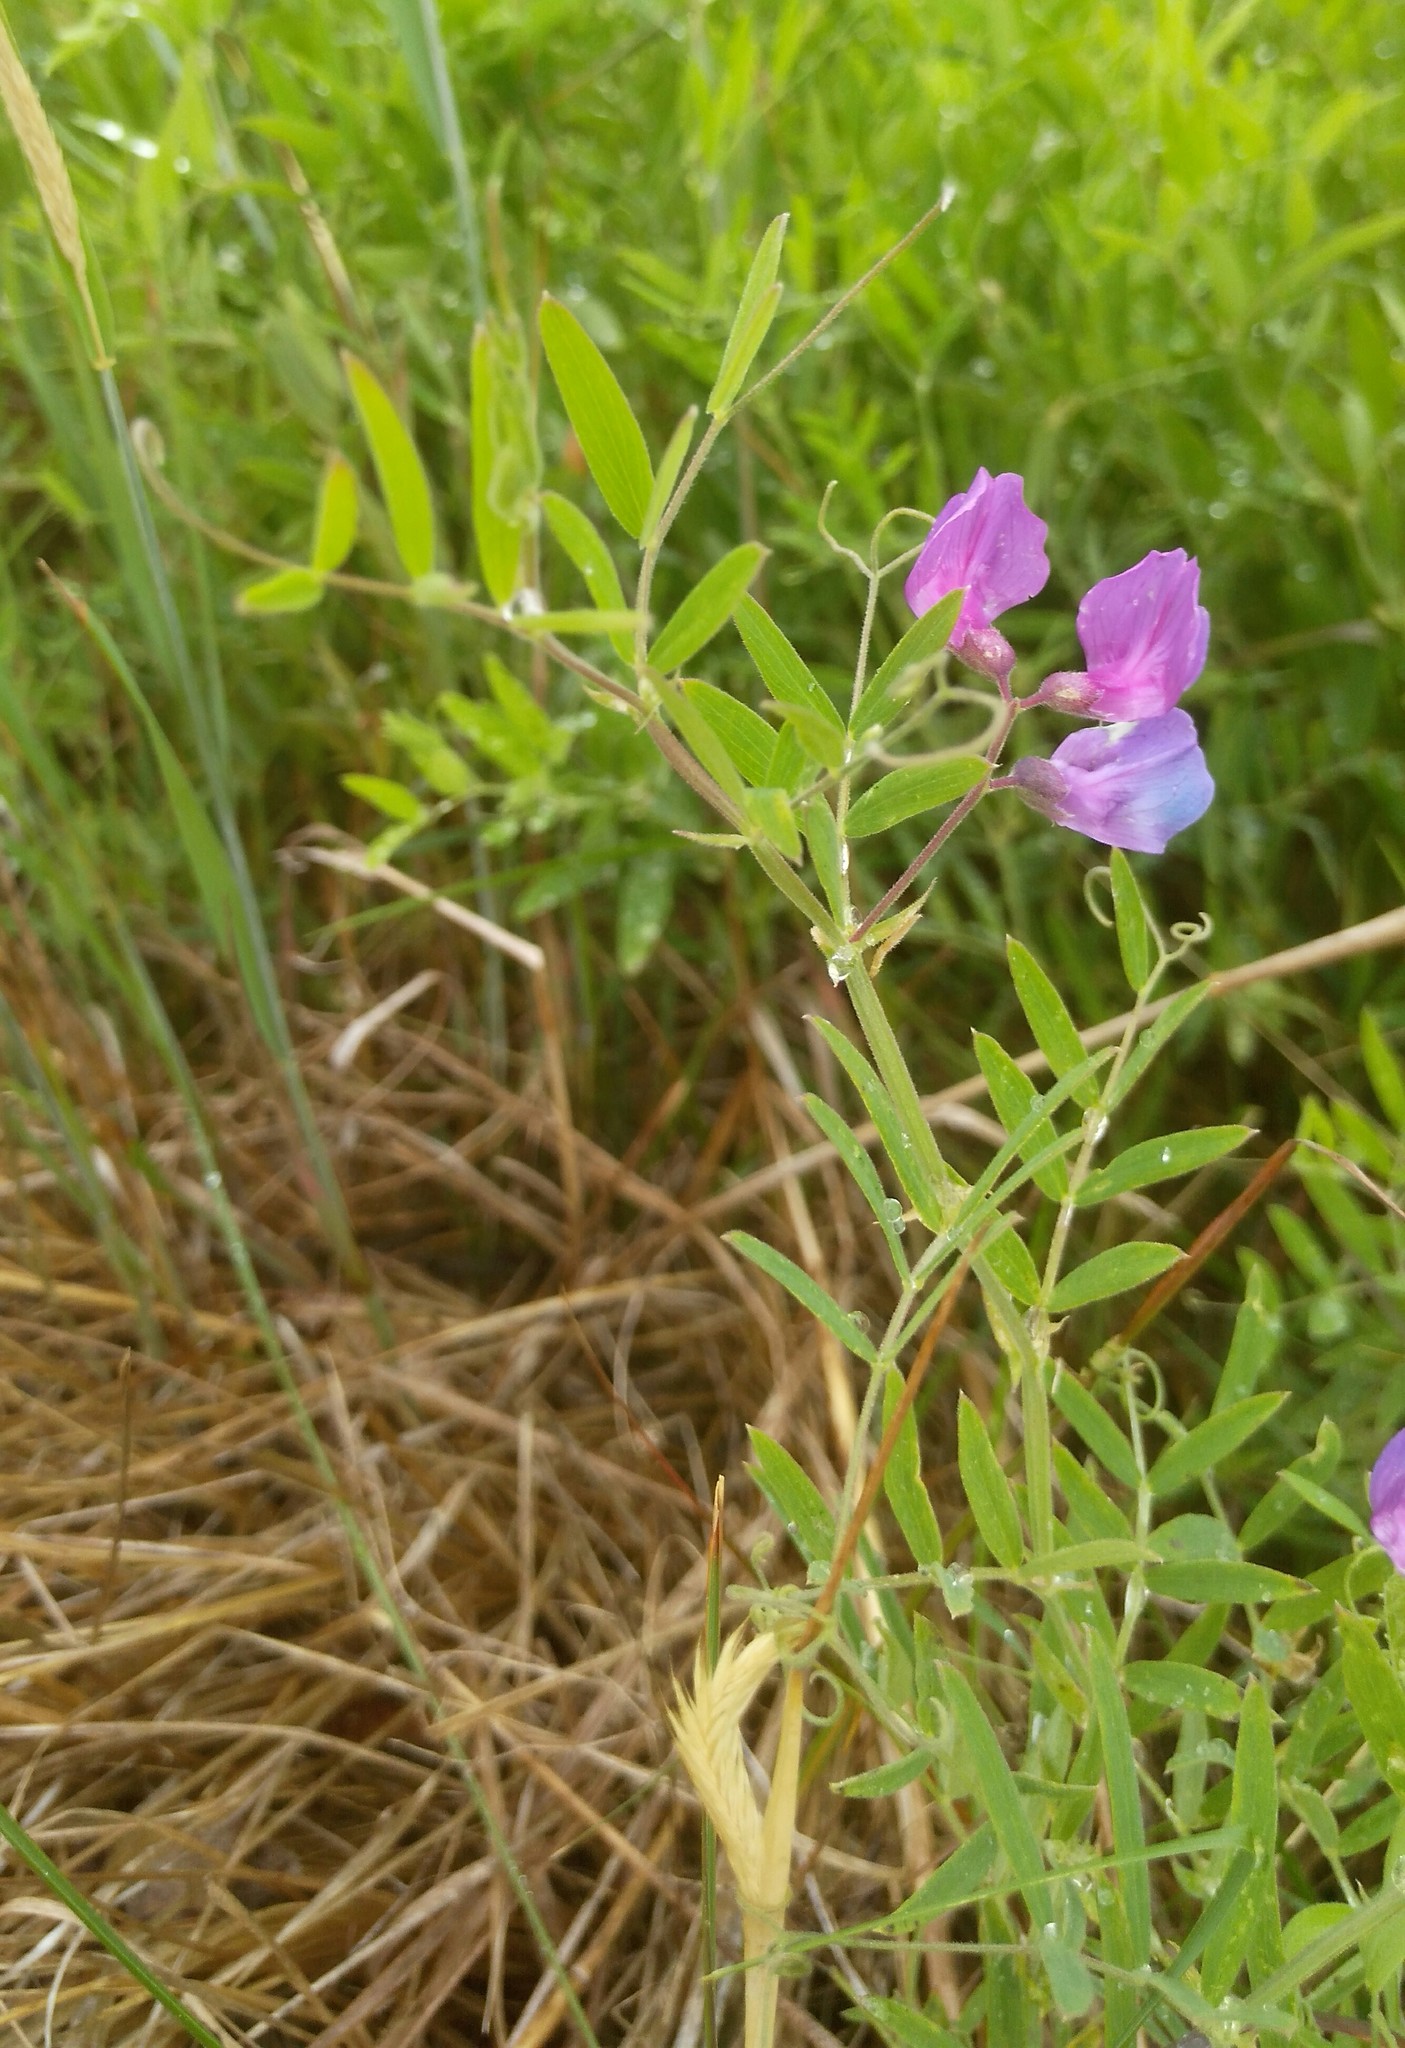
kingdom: Plantae
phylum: Tracheophyta
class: Magnoliopsida
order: Fabales
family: Fabaceae
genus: Lathyrus
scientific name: Lathyrus palustris
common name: Marsh pea
